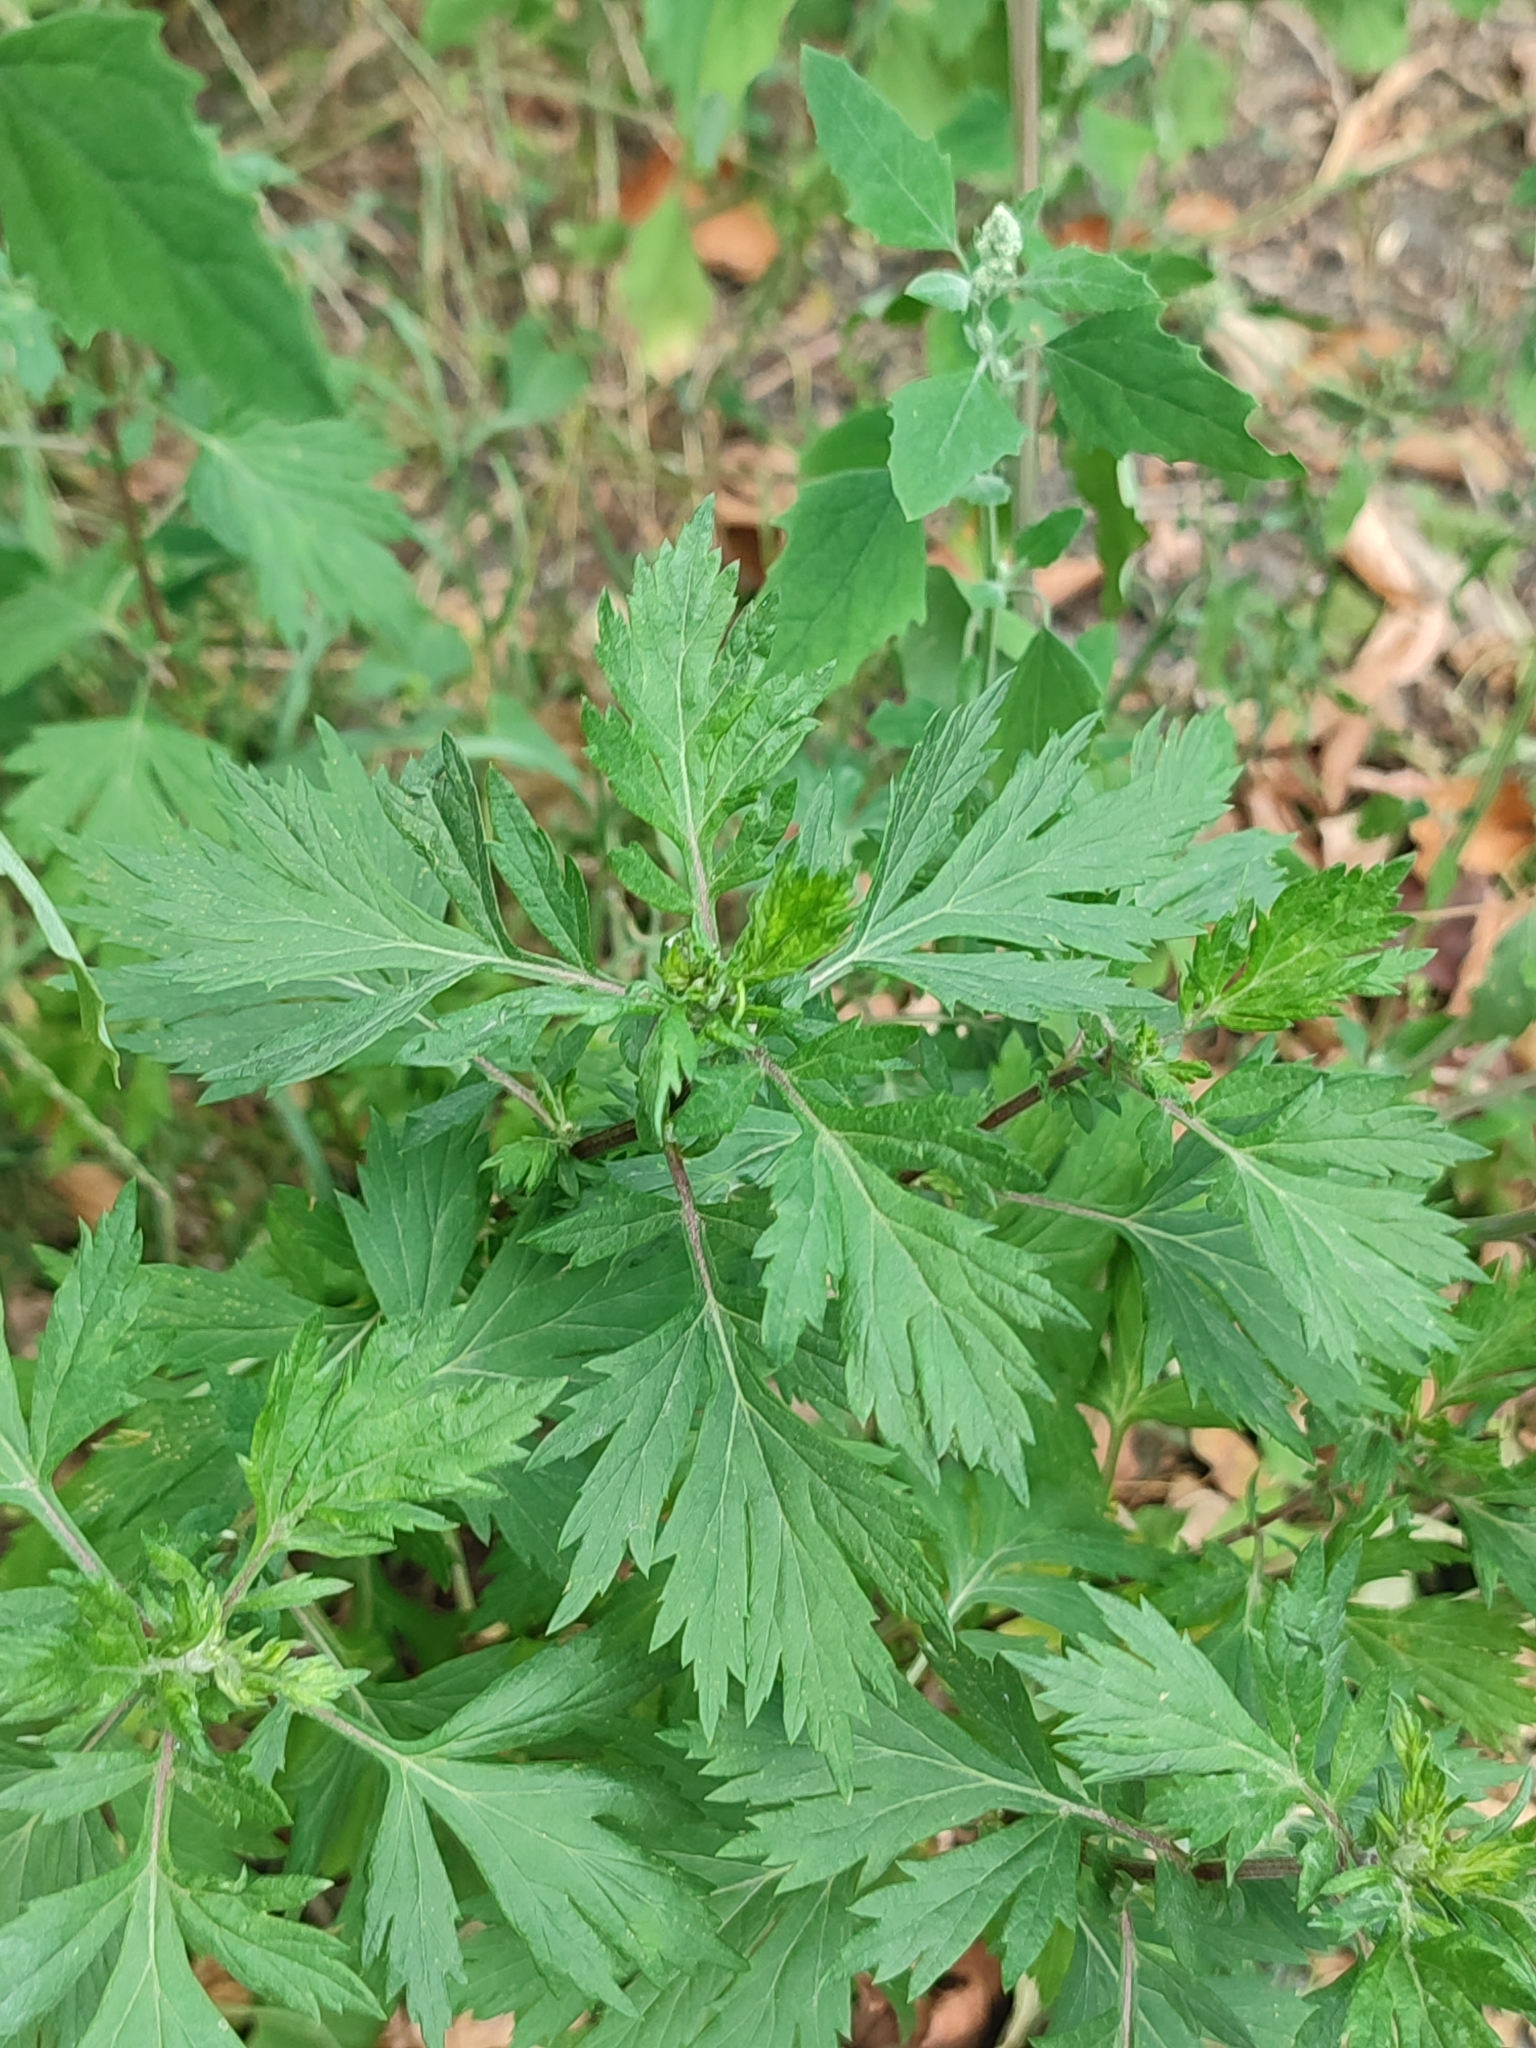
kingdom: Plantae
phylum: Tracheophyta
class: Magnoliopsida
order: Asterales
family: Asteraceae
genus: Artemisia
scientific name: Artemisia vulgaris
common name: Mugwort
